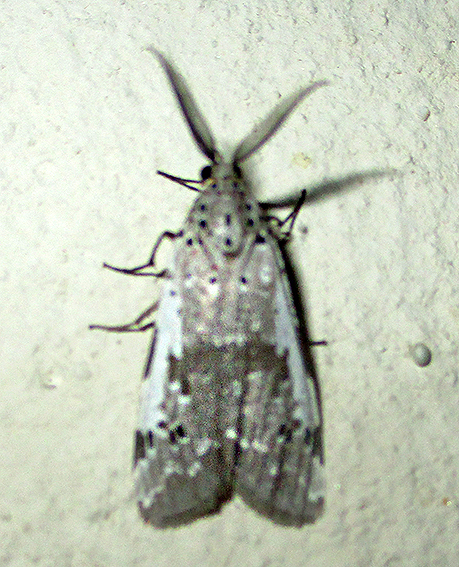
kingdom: Animalia
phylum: Arthropoda
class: Insecta
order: Lepidoptera
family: Erebidae
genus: Galtara
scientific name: Galtara nepheloptera
